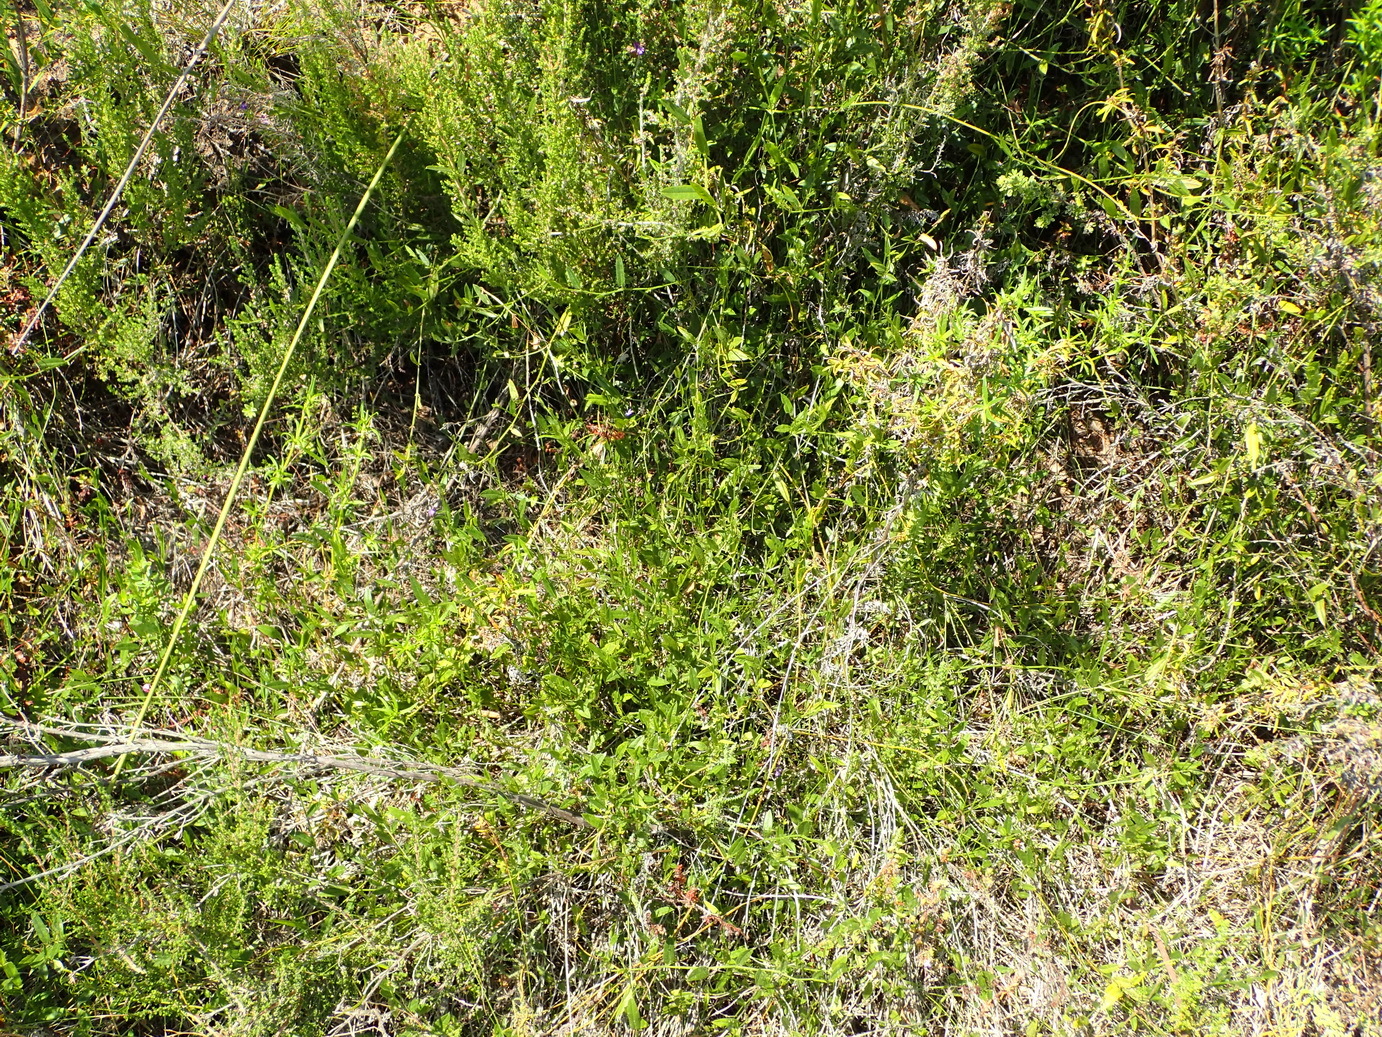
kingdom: Plantae
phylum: Tracheophyta
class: Magnoliopsida
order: Fabales
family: Fabaceae
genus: Psoralea
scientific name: Psoralea plauta
